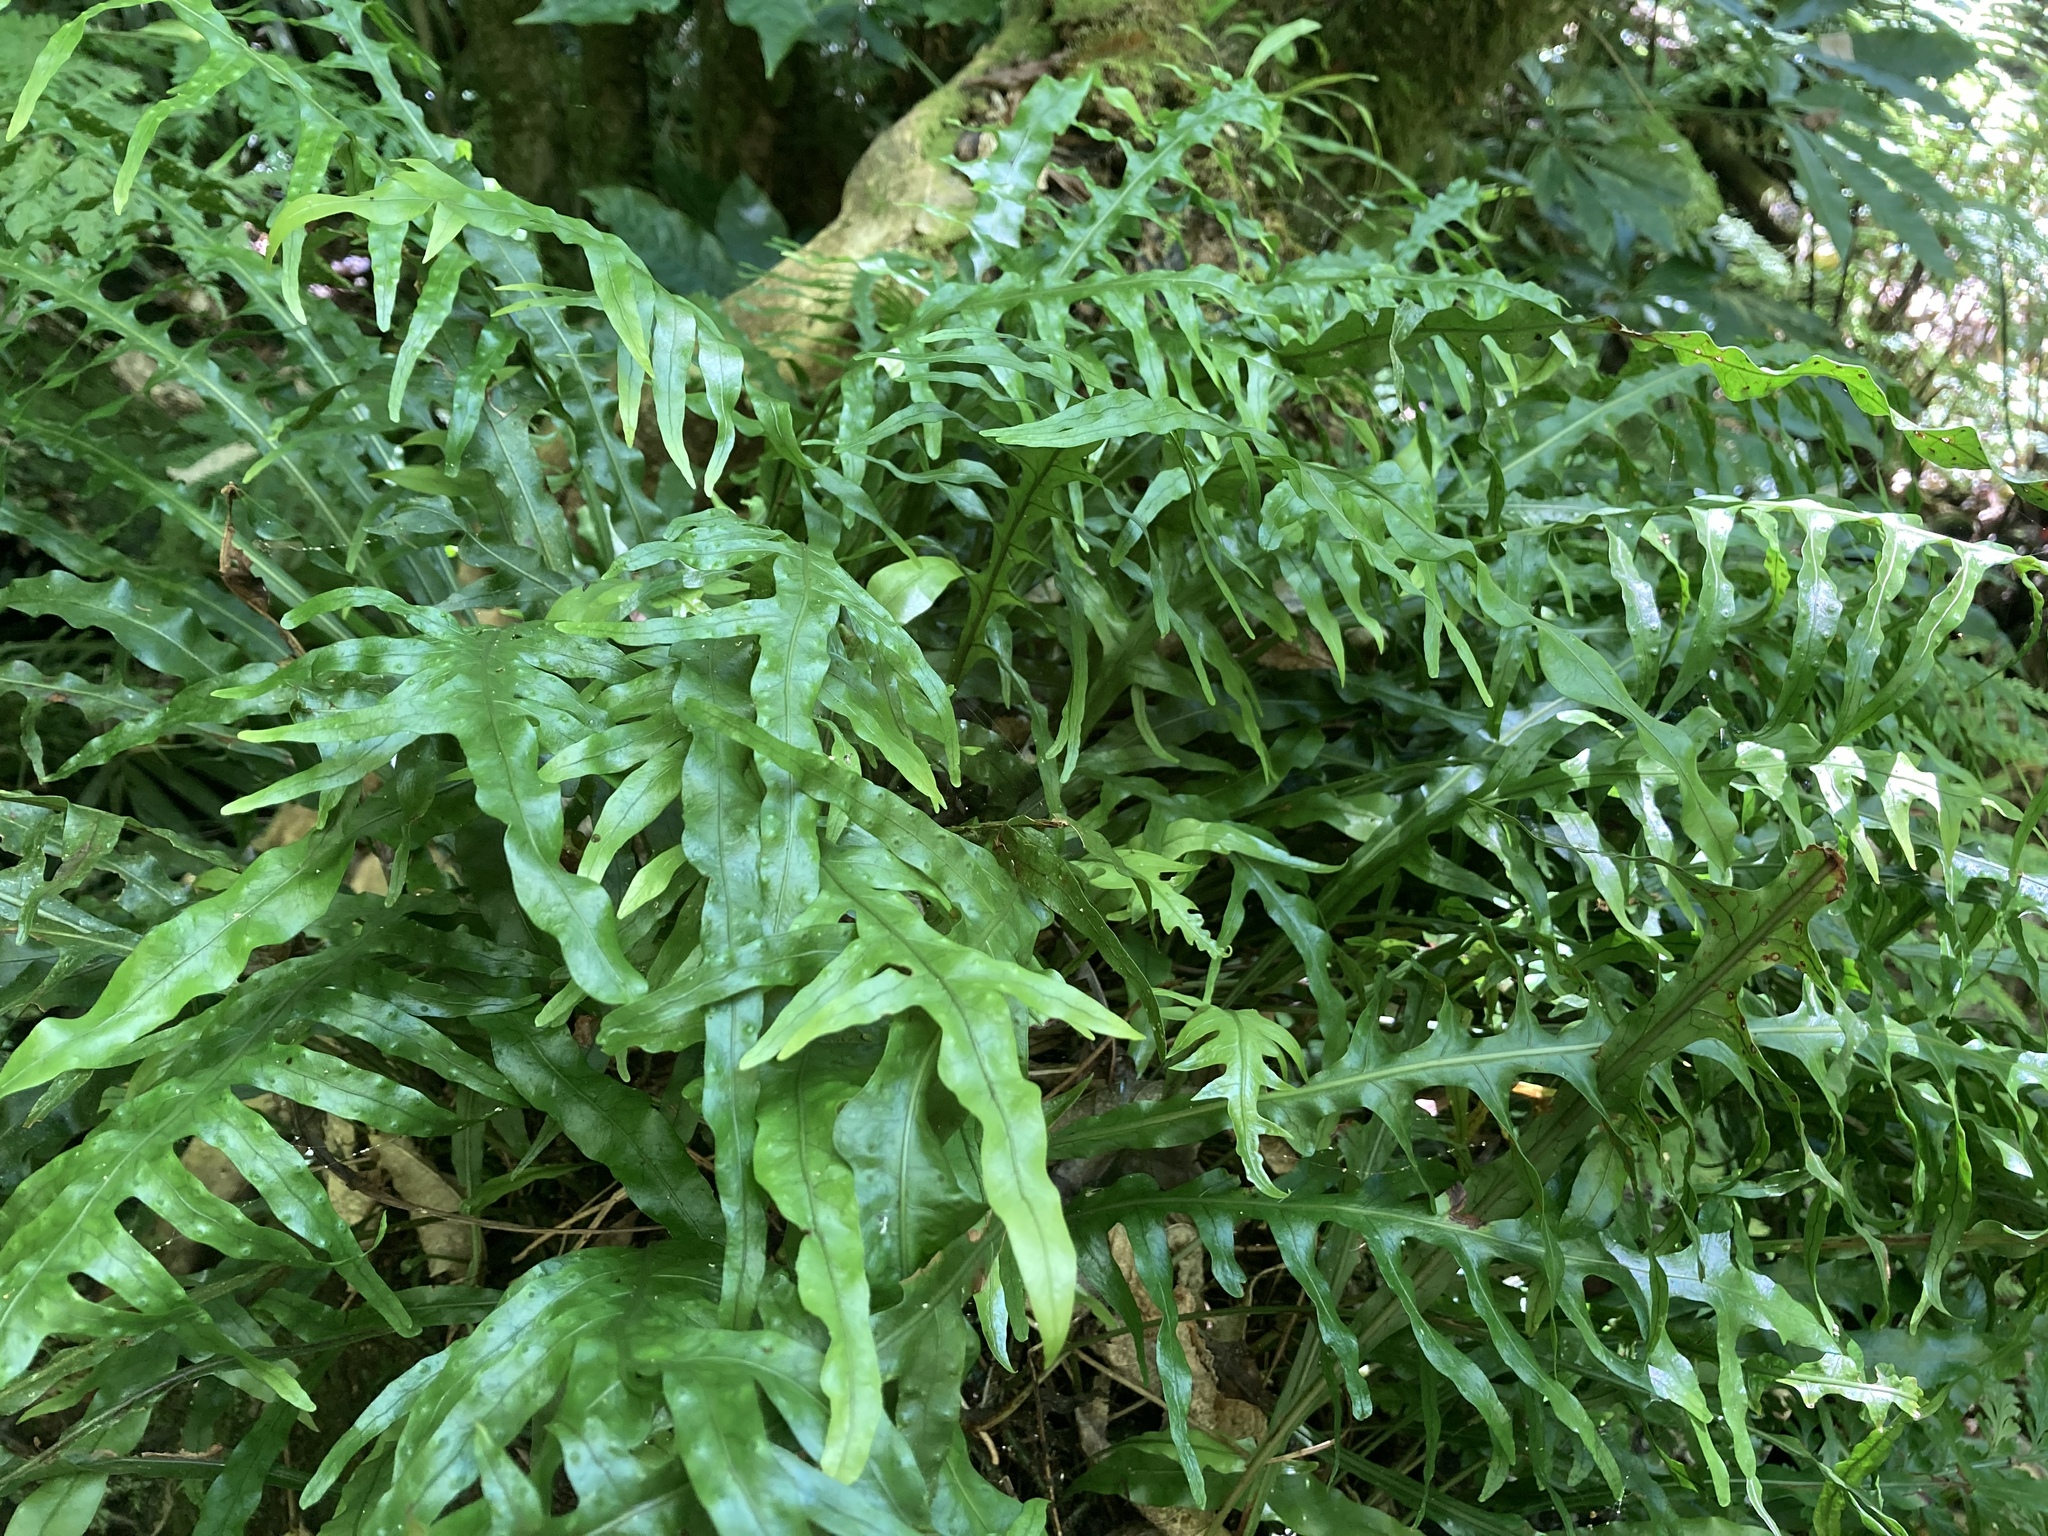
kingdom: Plantae
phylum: Tracheophyta
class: Polypodiopsida
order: Polypodiales
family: Polypodiaceae
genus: Lecanopteris
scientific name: Lecanopteris scandens
